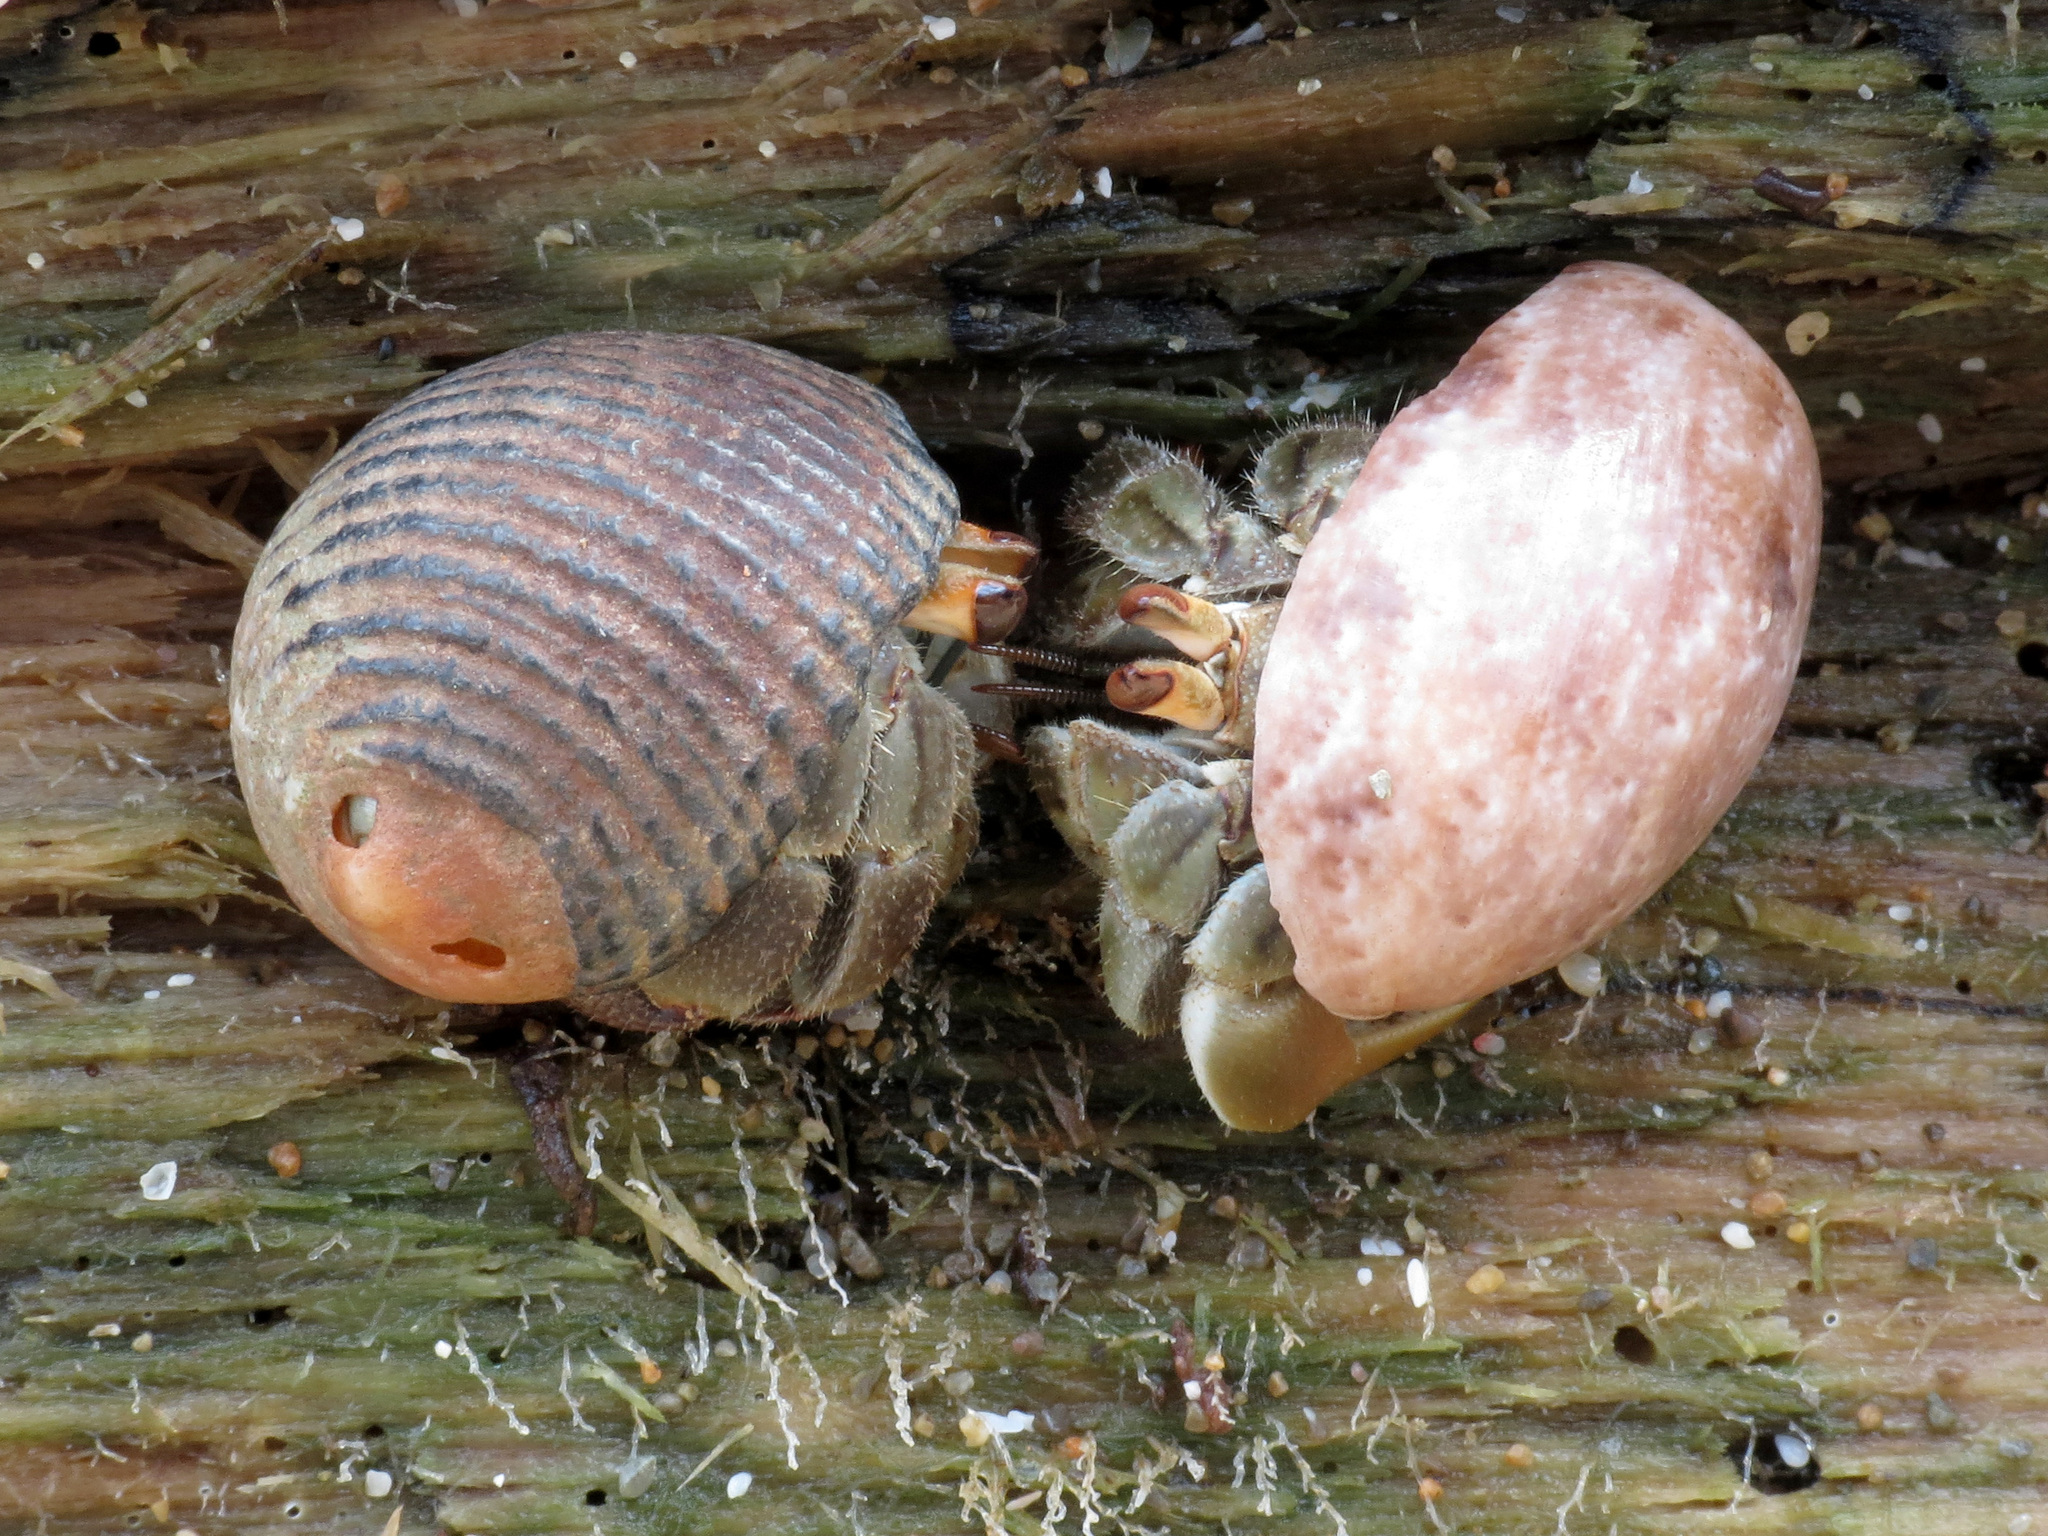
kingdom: Animalia
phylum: Arthropoda
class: Malacostraca
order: Decapoda
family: Coenobitidae
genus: Coenobita
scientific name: Coenobita compressus
